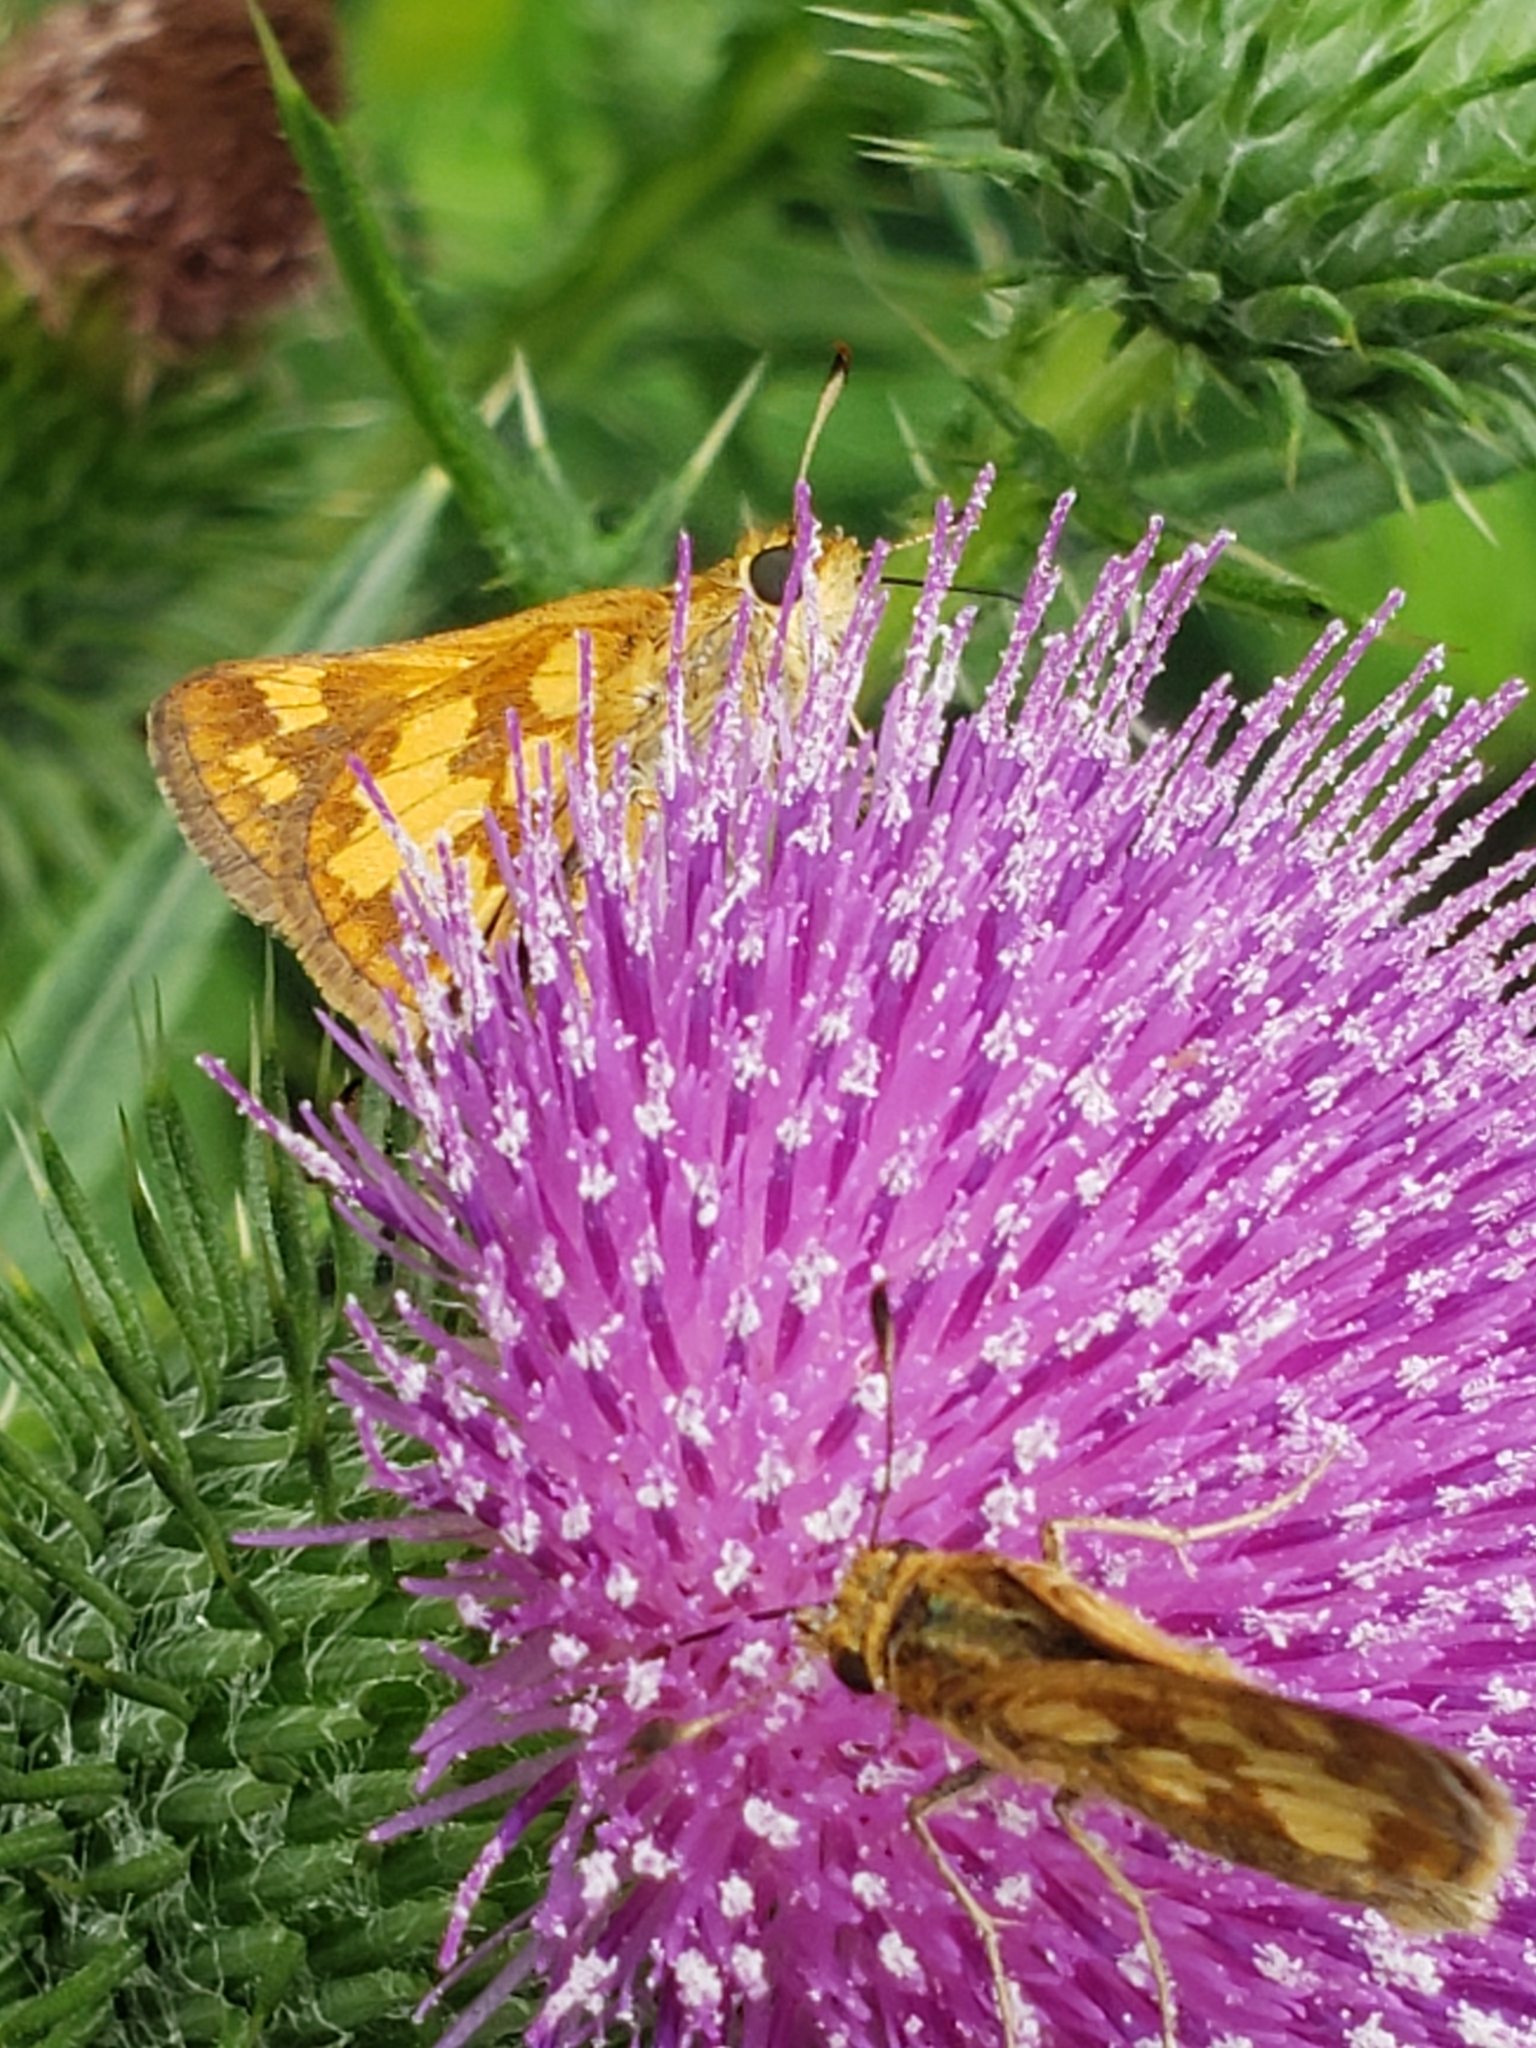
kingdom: Animalia
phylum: Arthropoda
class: Insecta
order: Lepidoptera
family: Hesperiidae
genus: Polites
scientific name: Polites coras
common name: Peck's skipper
